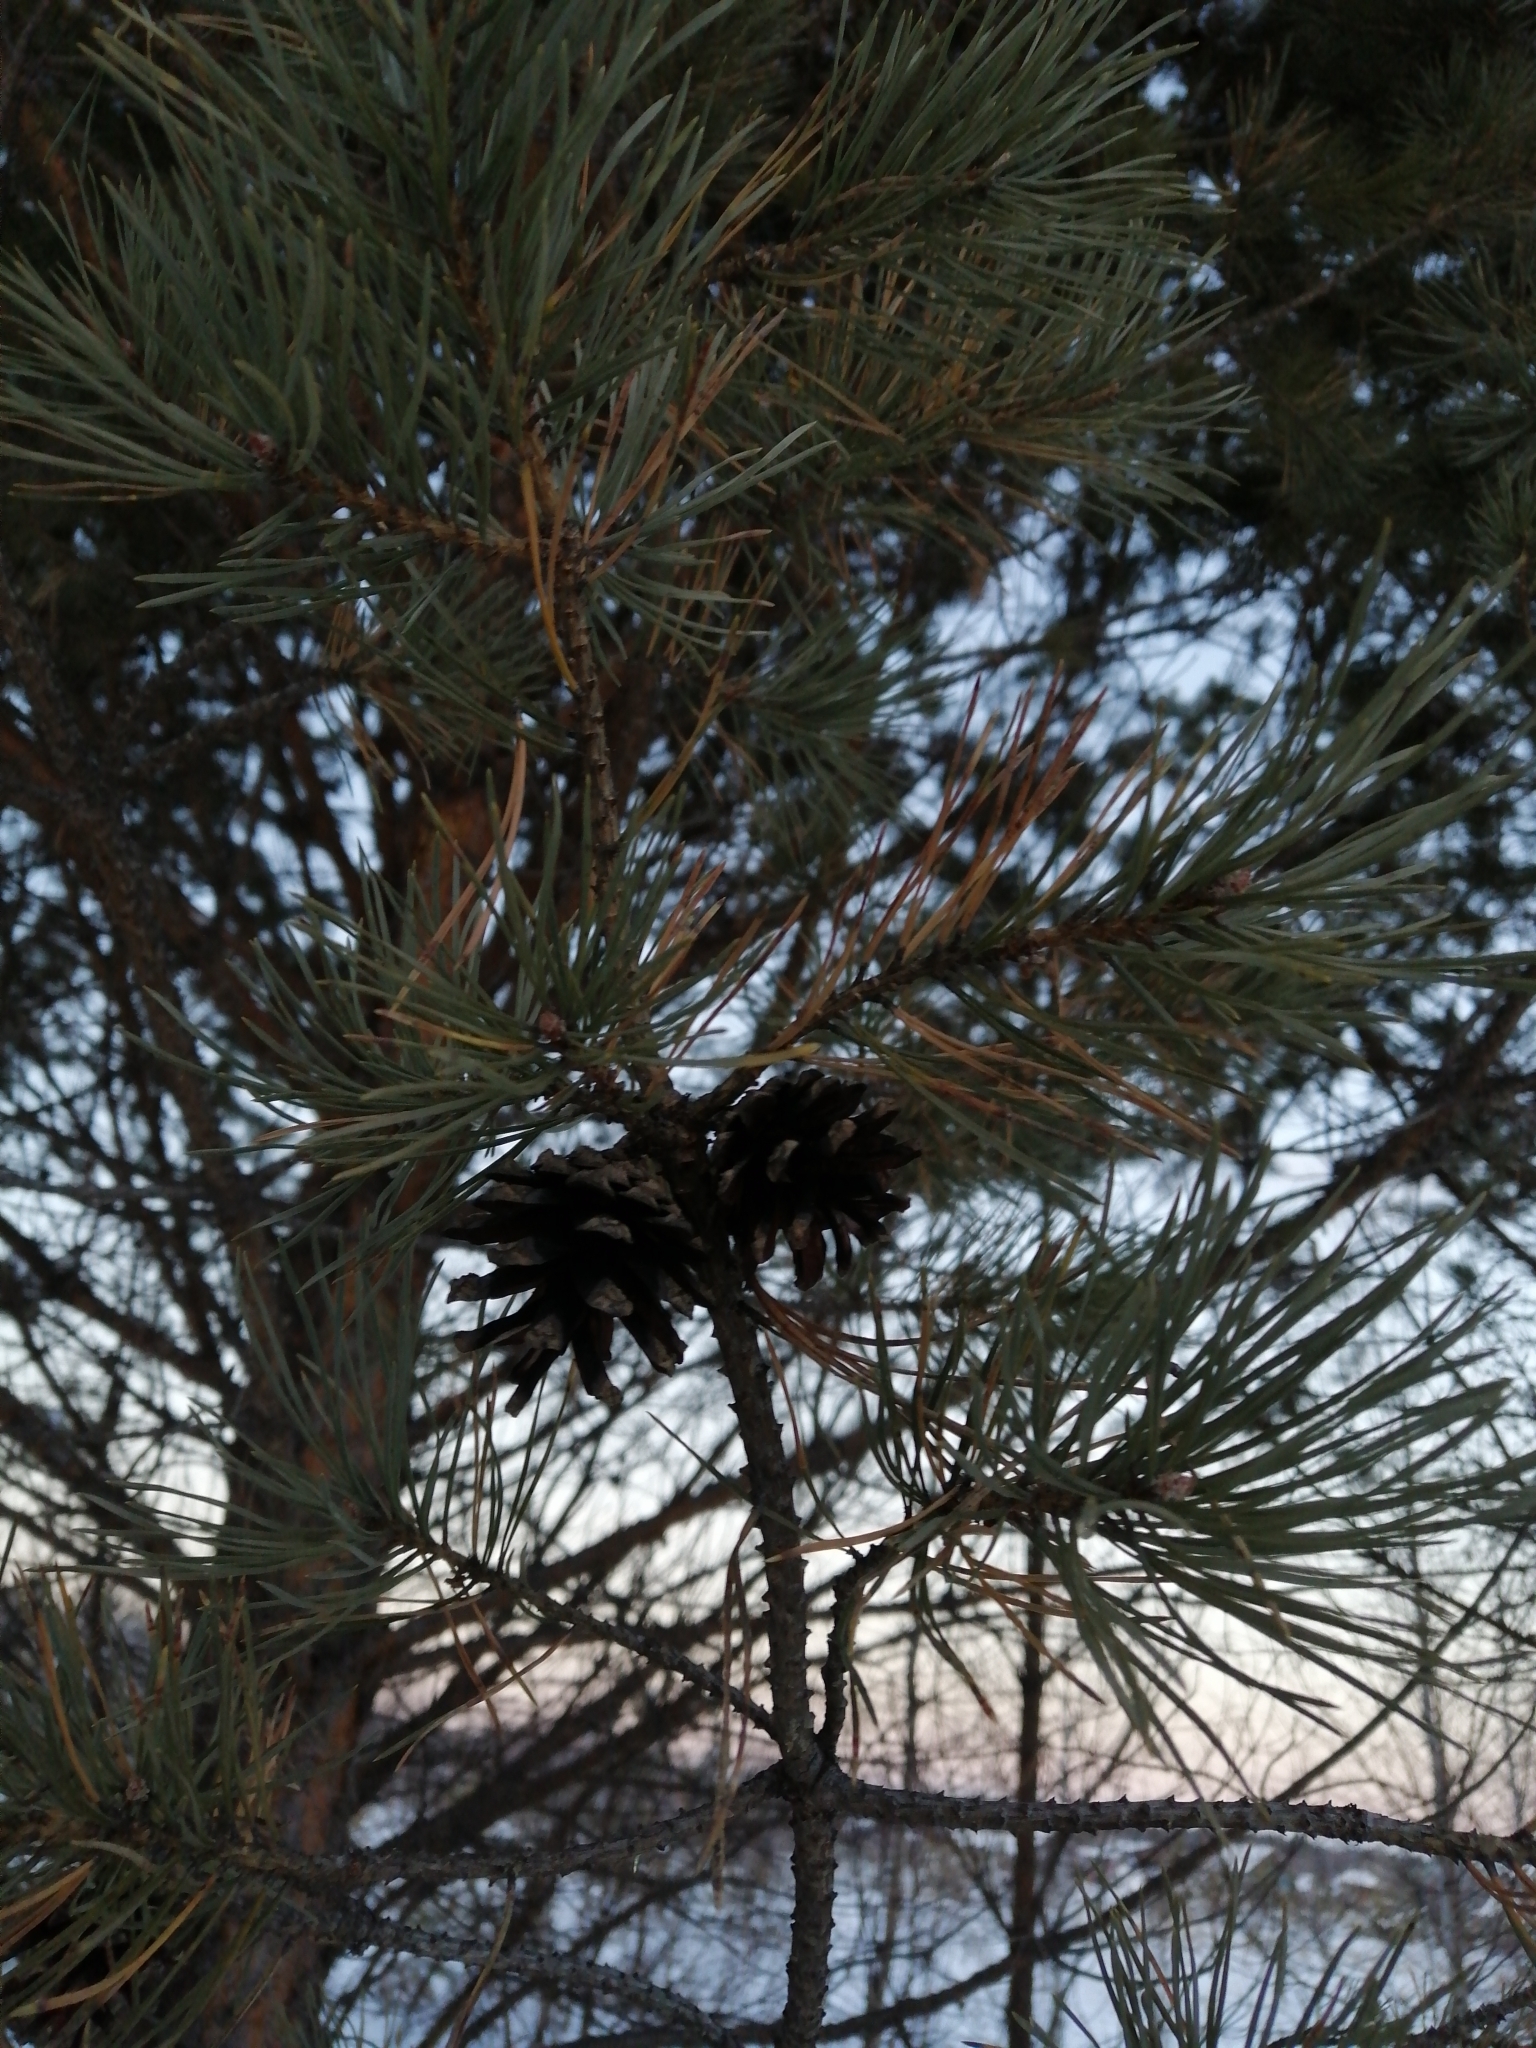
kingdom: Plantae
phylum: Tracheophyta
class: Pinopsida
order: Pinales
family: Pinaceae
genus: Pinus
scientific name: Pinus sylvestris
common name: Scots pine
